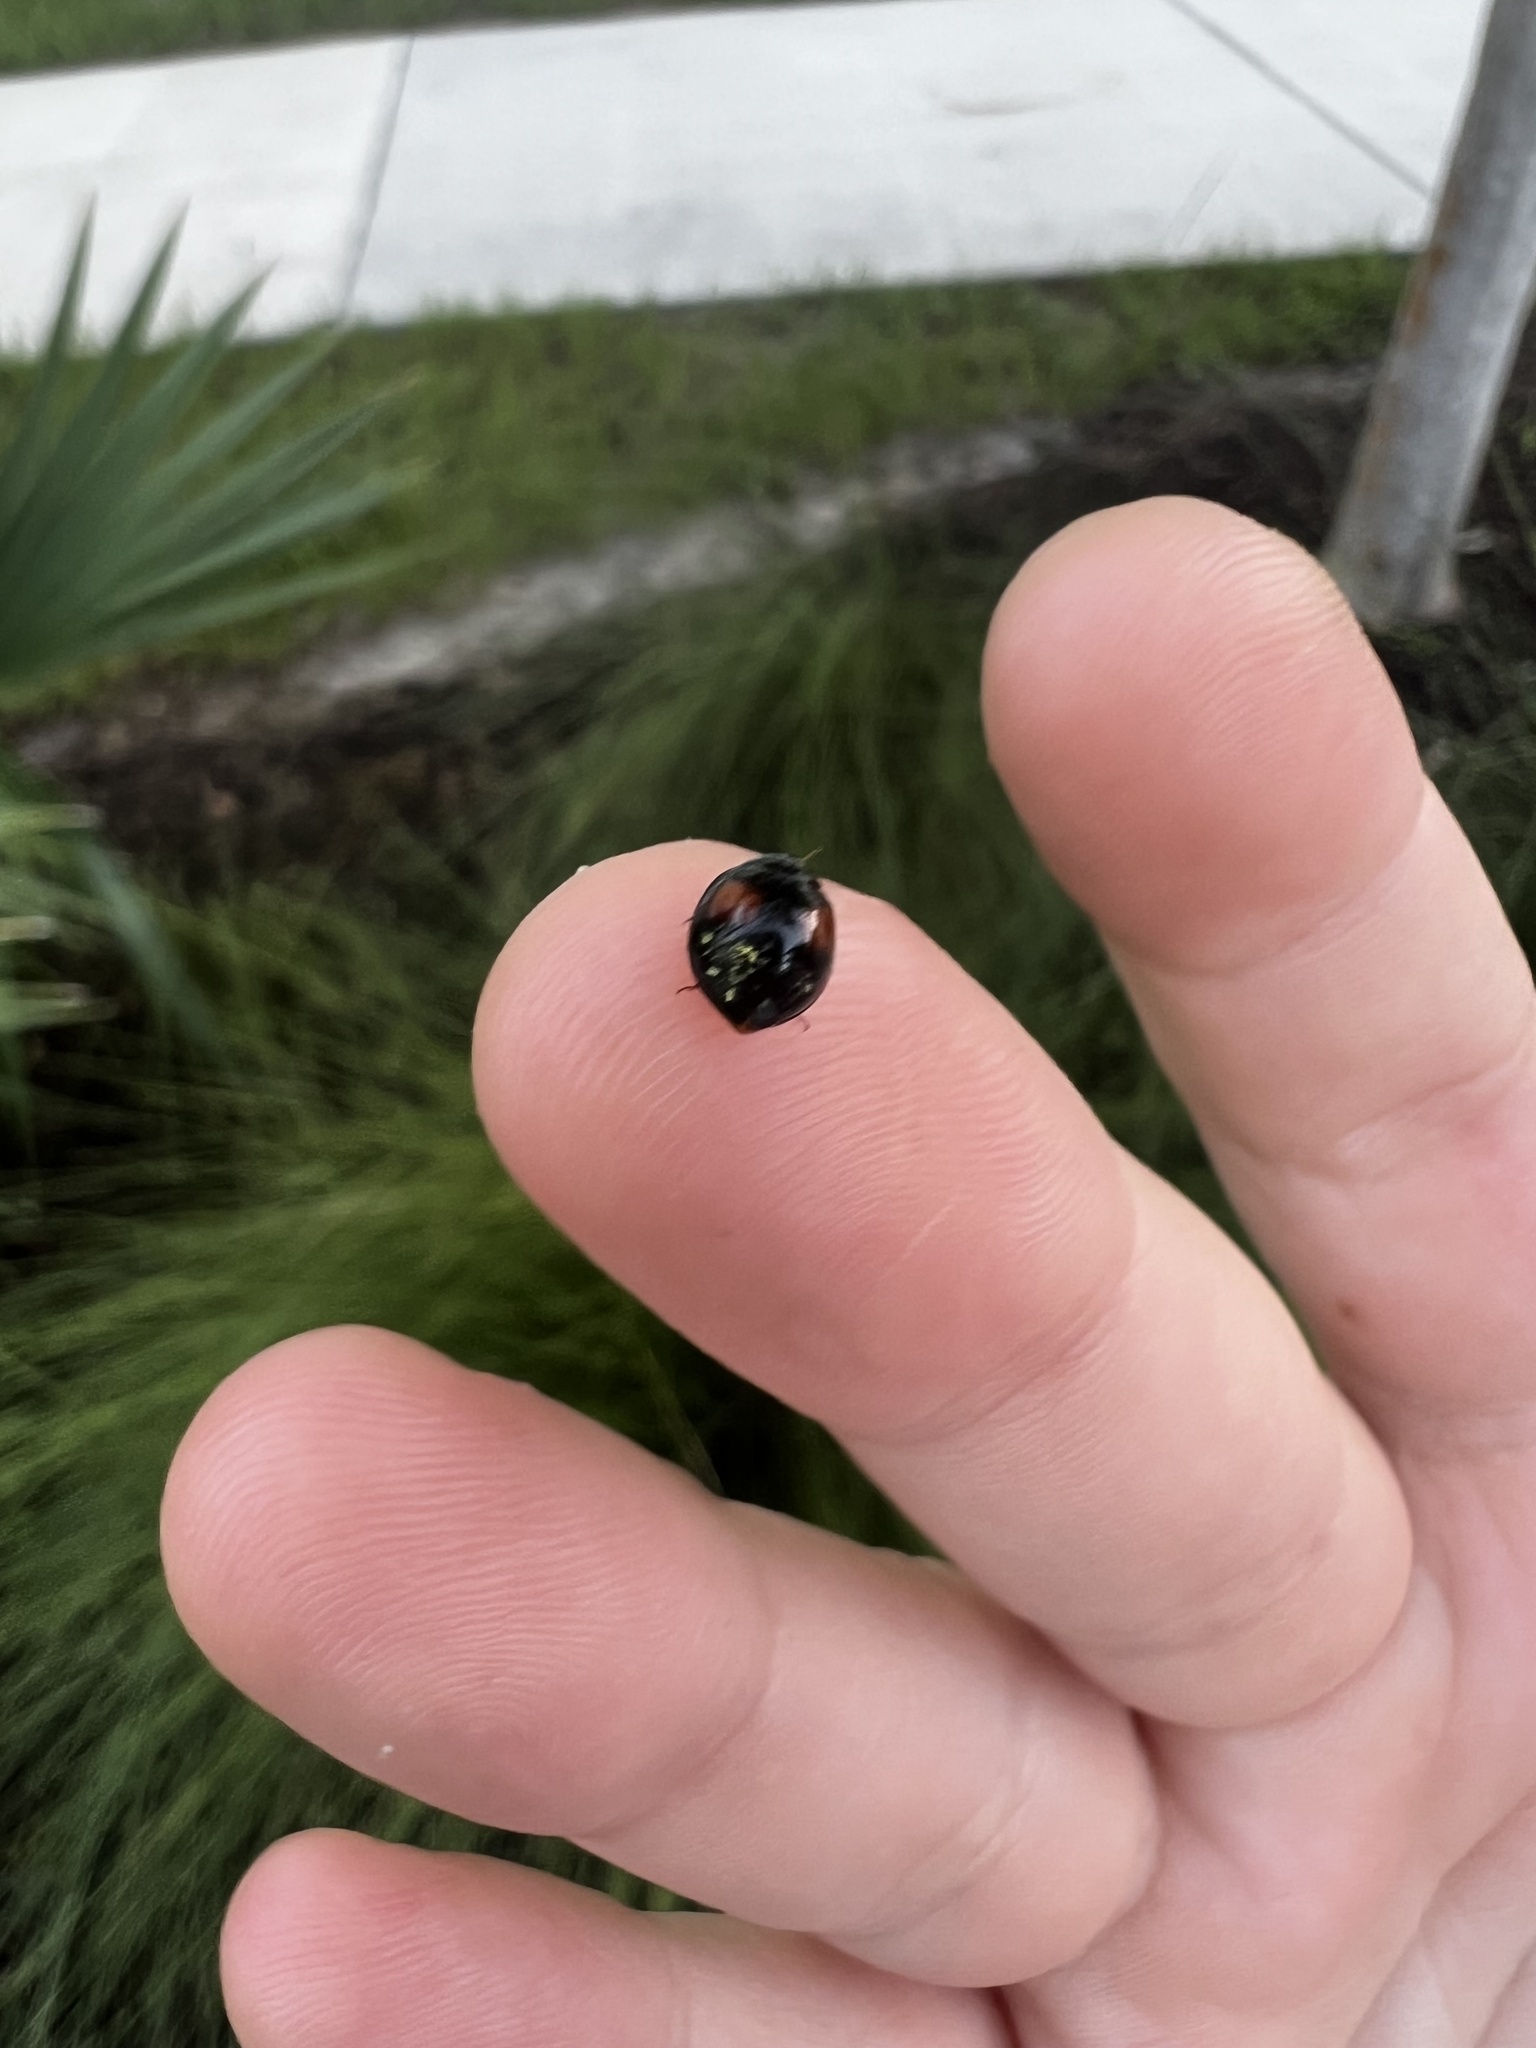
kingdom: Animalia
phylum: Arthropoda
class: Insecta
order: Coleoptera
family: Coccinellidae
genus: Olla
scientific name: Olla v-nigrum
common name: Ashy gray lady beetle
